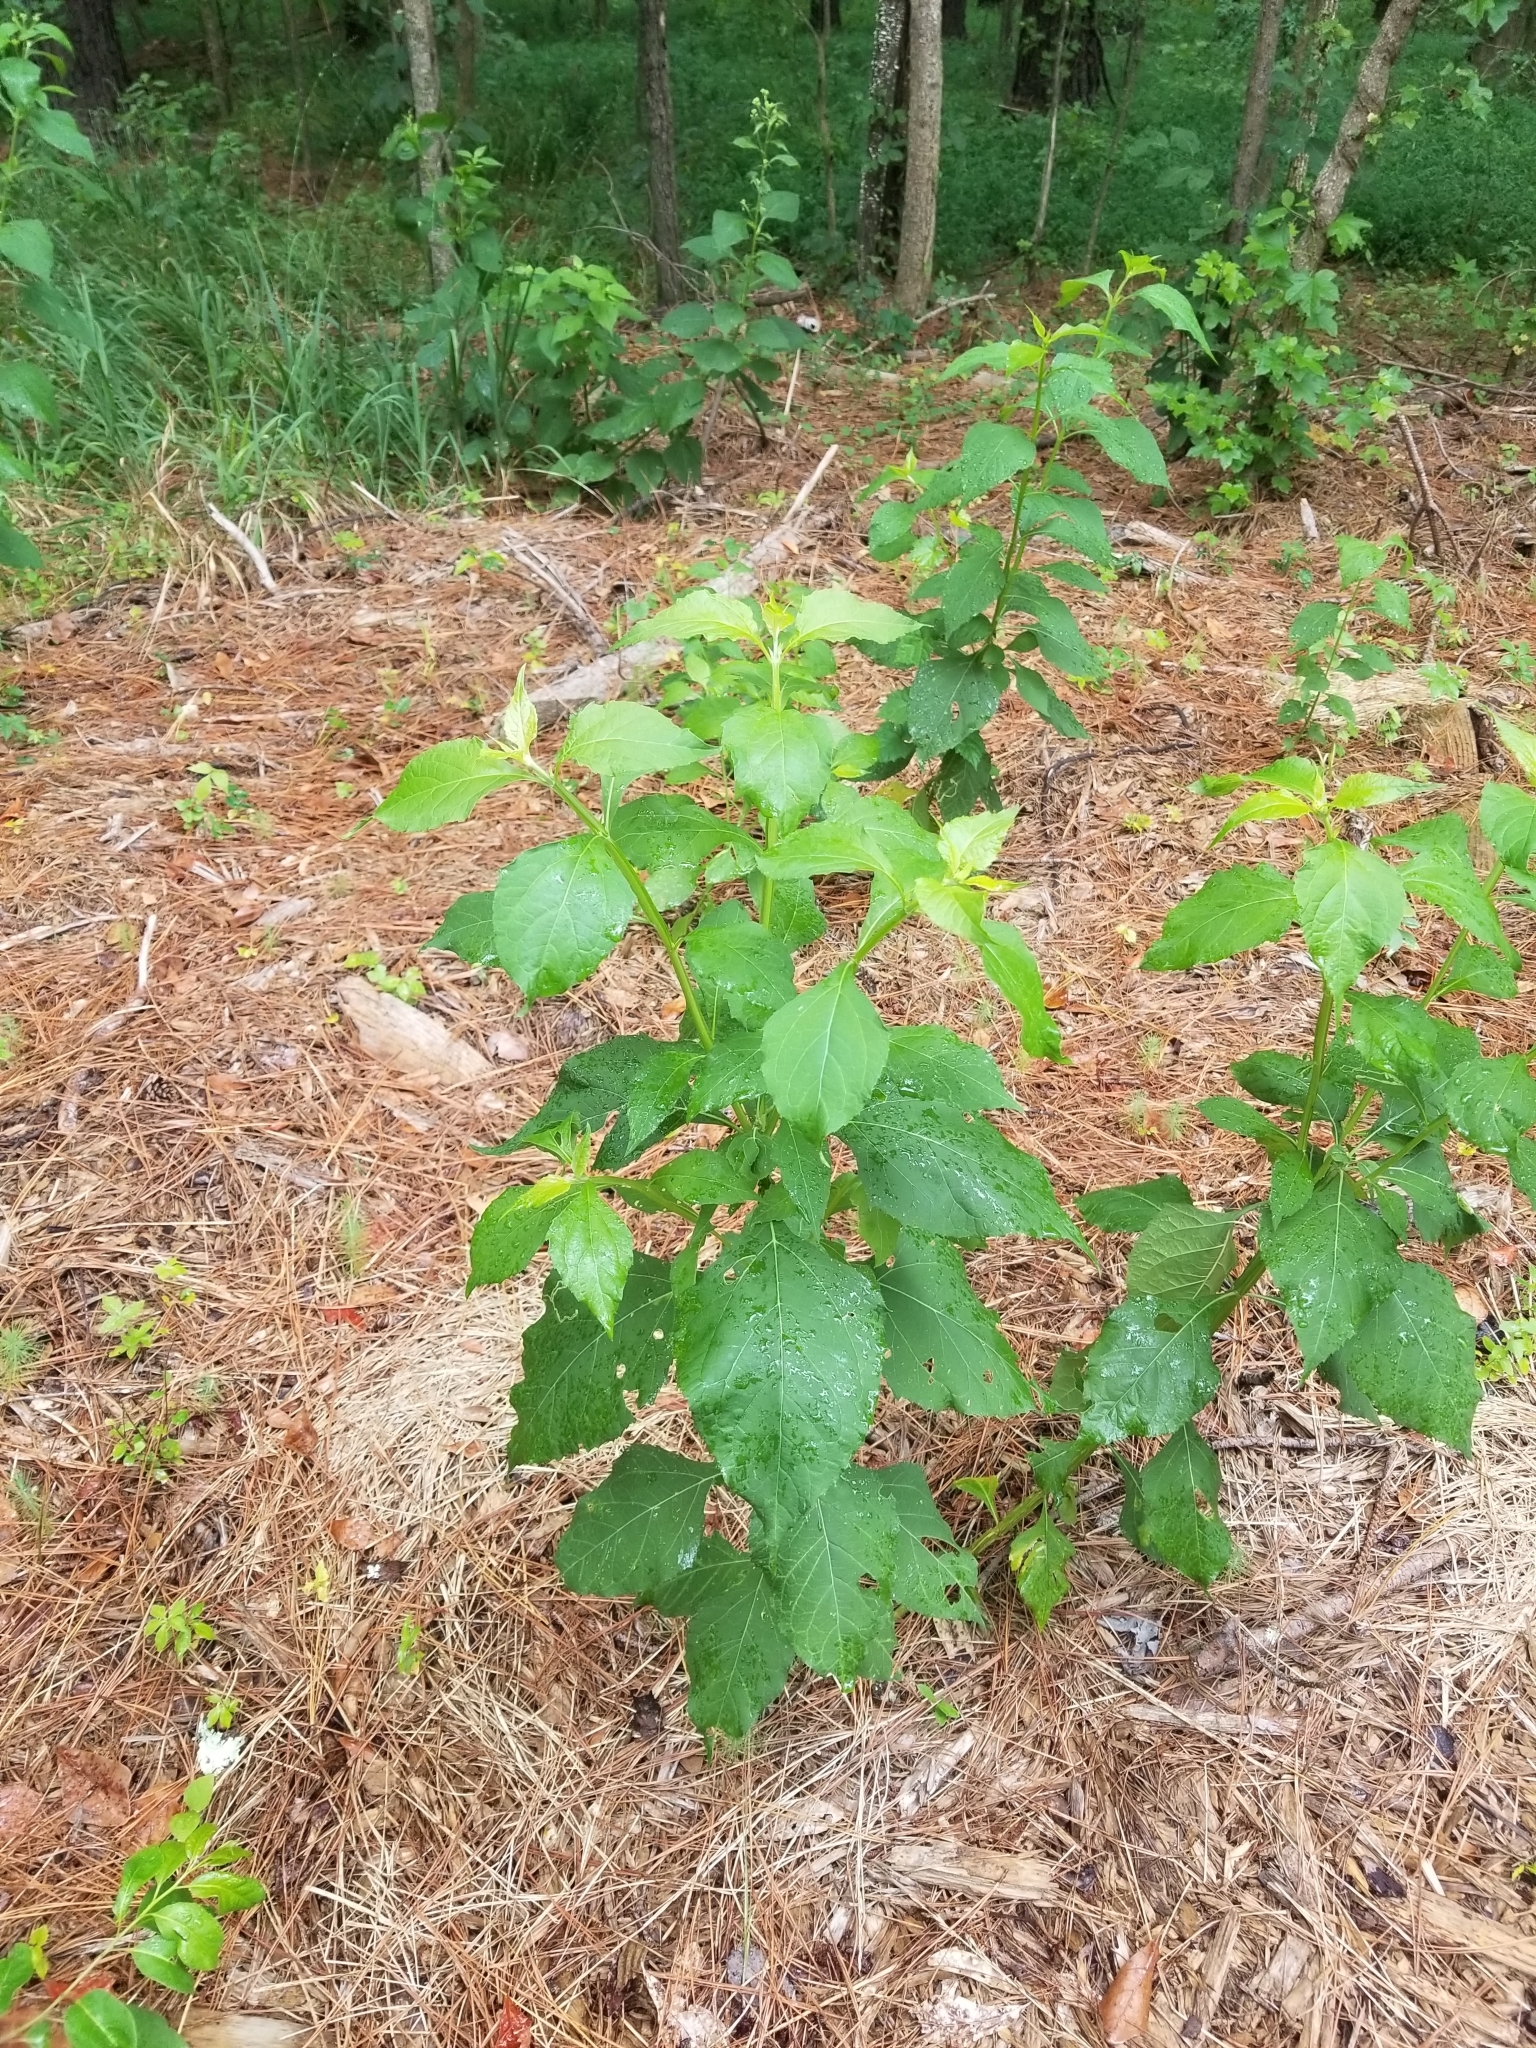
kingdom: Plantae
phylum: Tracheophyta
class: Magnoliopsida
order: Asterales
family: Asteraceae
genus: Verbesina
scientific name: Verbesina occidentalis
